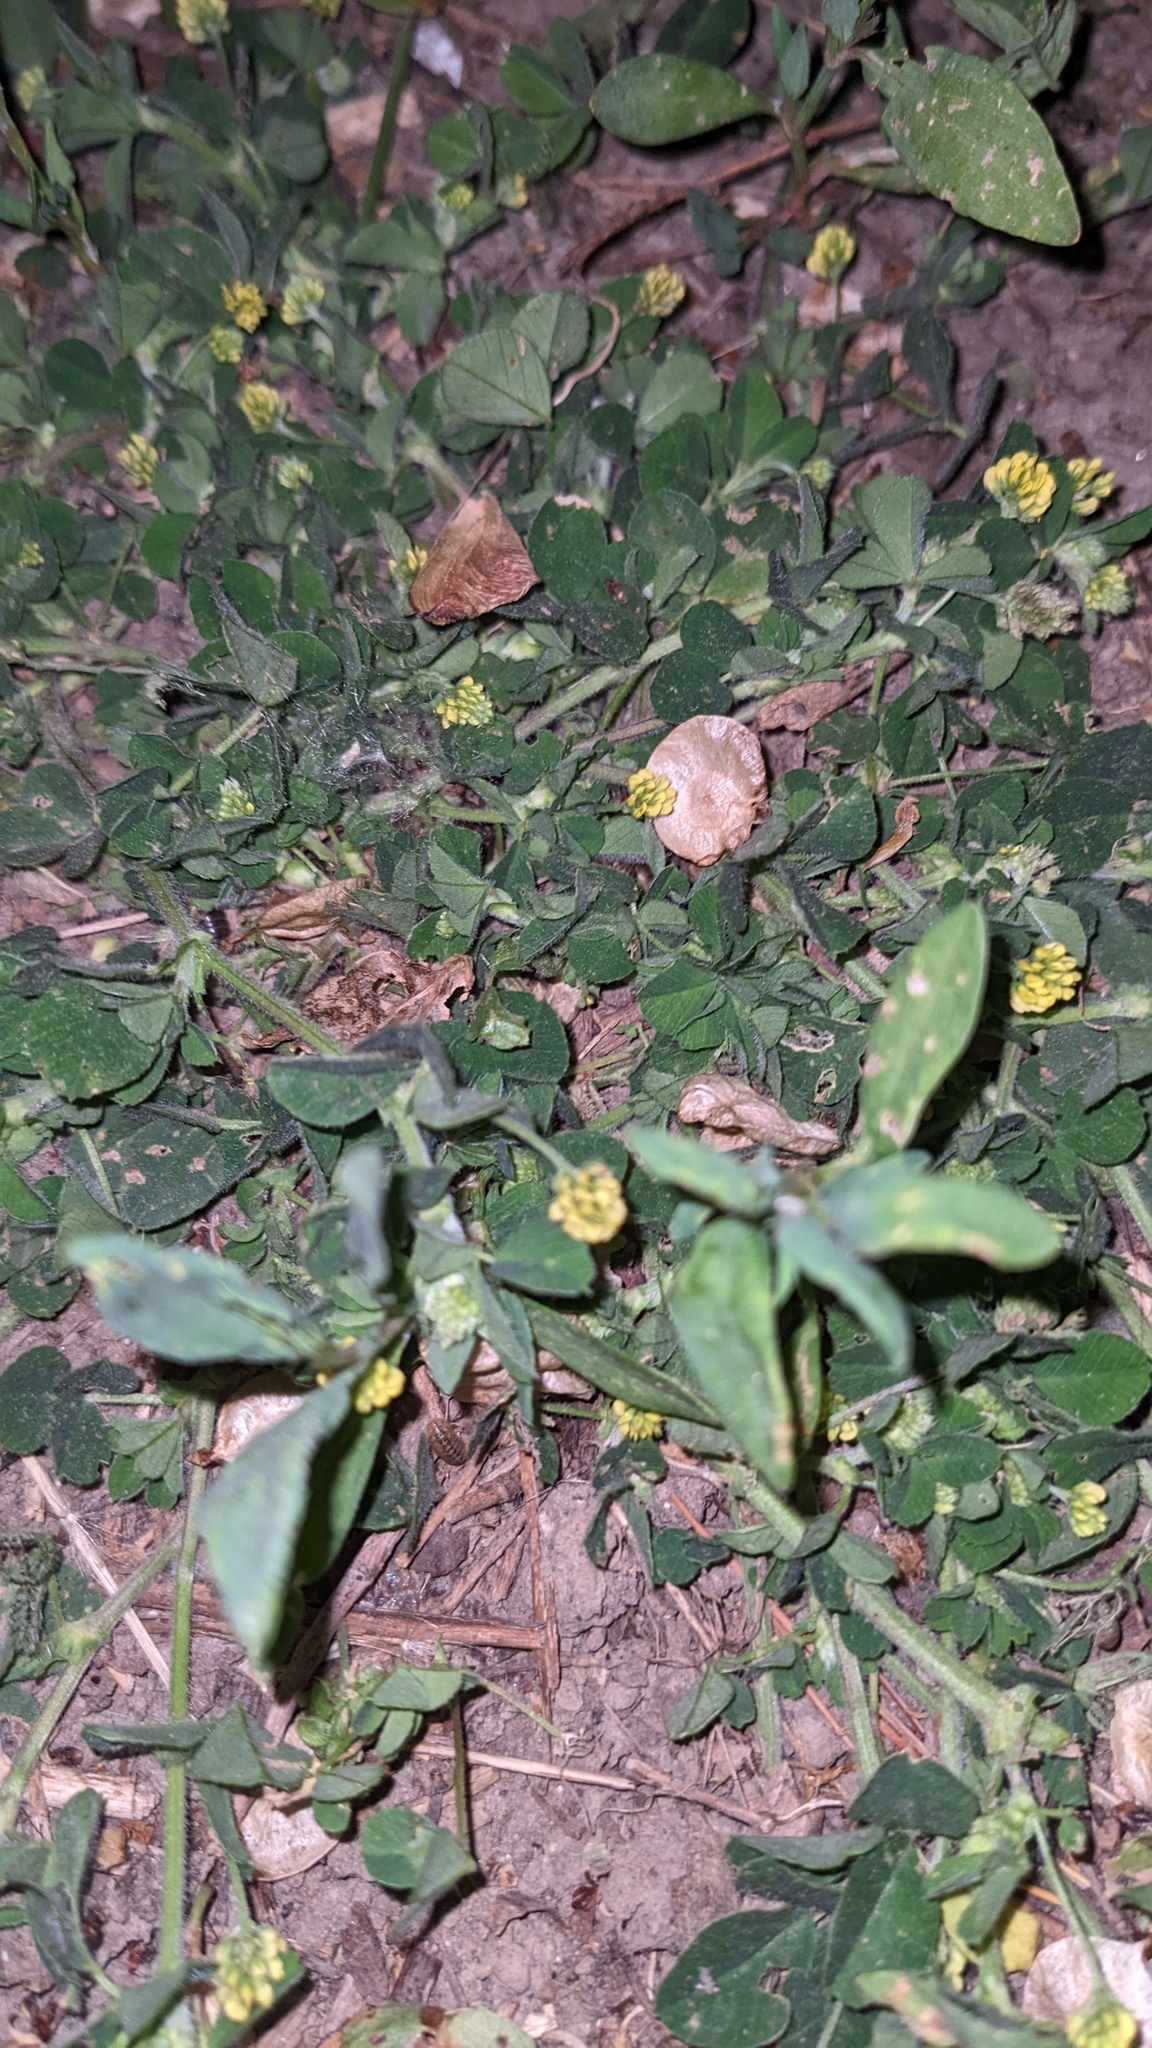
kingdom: Plantae
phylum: Tracheophyta
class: Magnoliopsida
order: Fabales
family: Fabaceae
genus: Medicago
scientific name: Medicago lupulina
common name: Black medick
